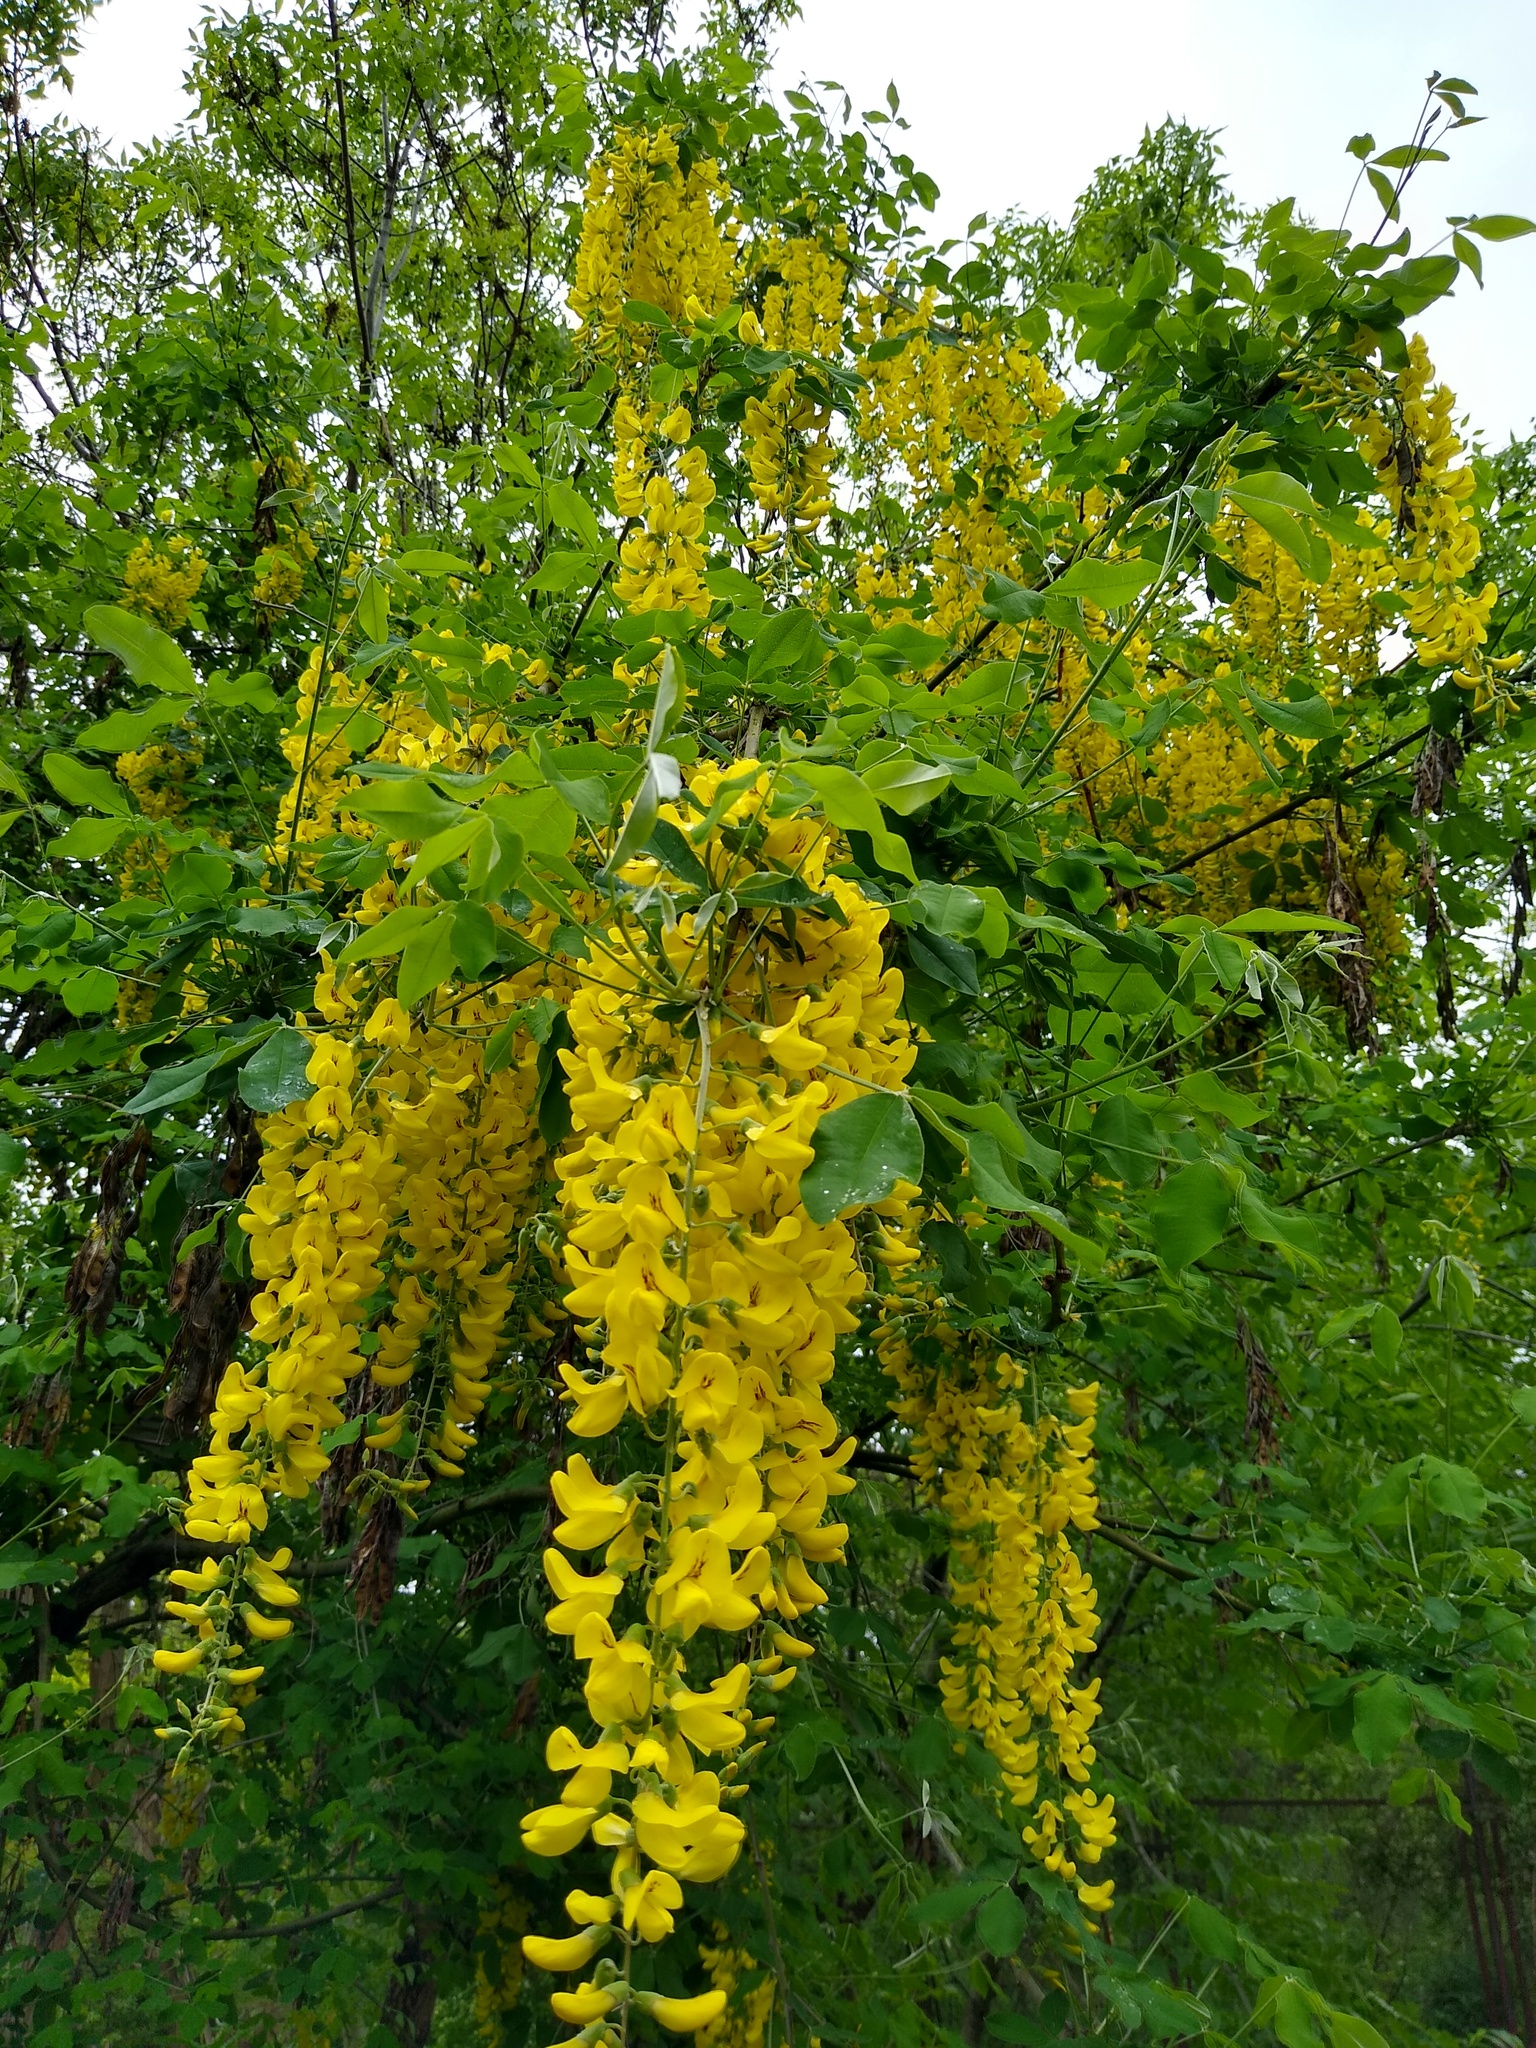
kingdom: Plantae
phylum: Tracheophyta
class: Magnoliopsida
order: Fabales
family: Fabaceae
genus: Laburnum
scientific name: Laburnum anagyroides
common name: Laburnum
